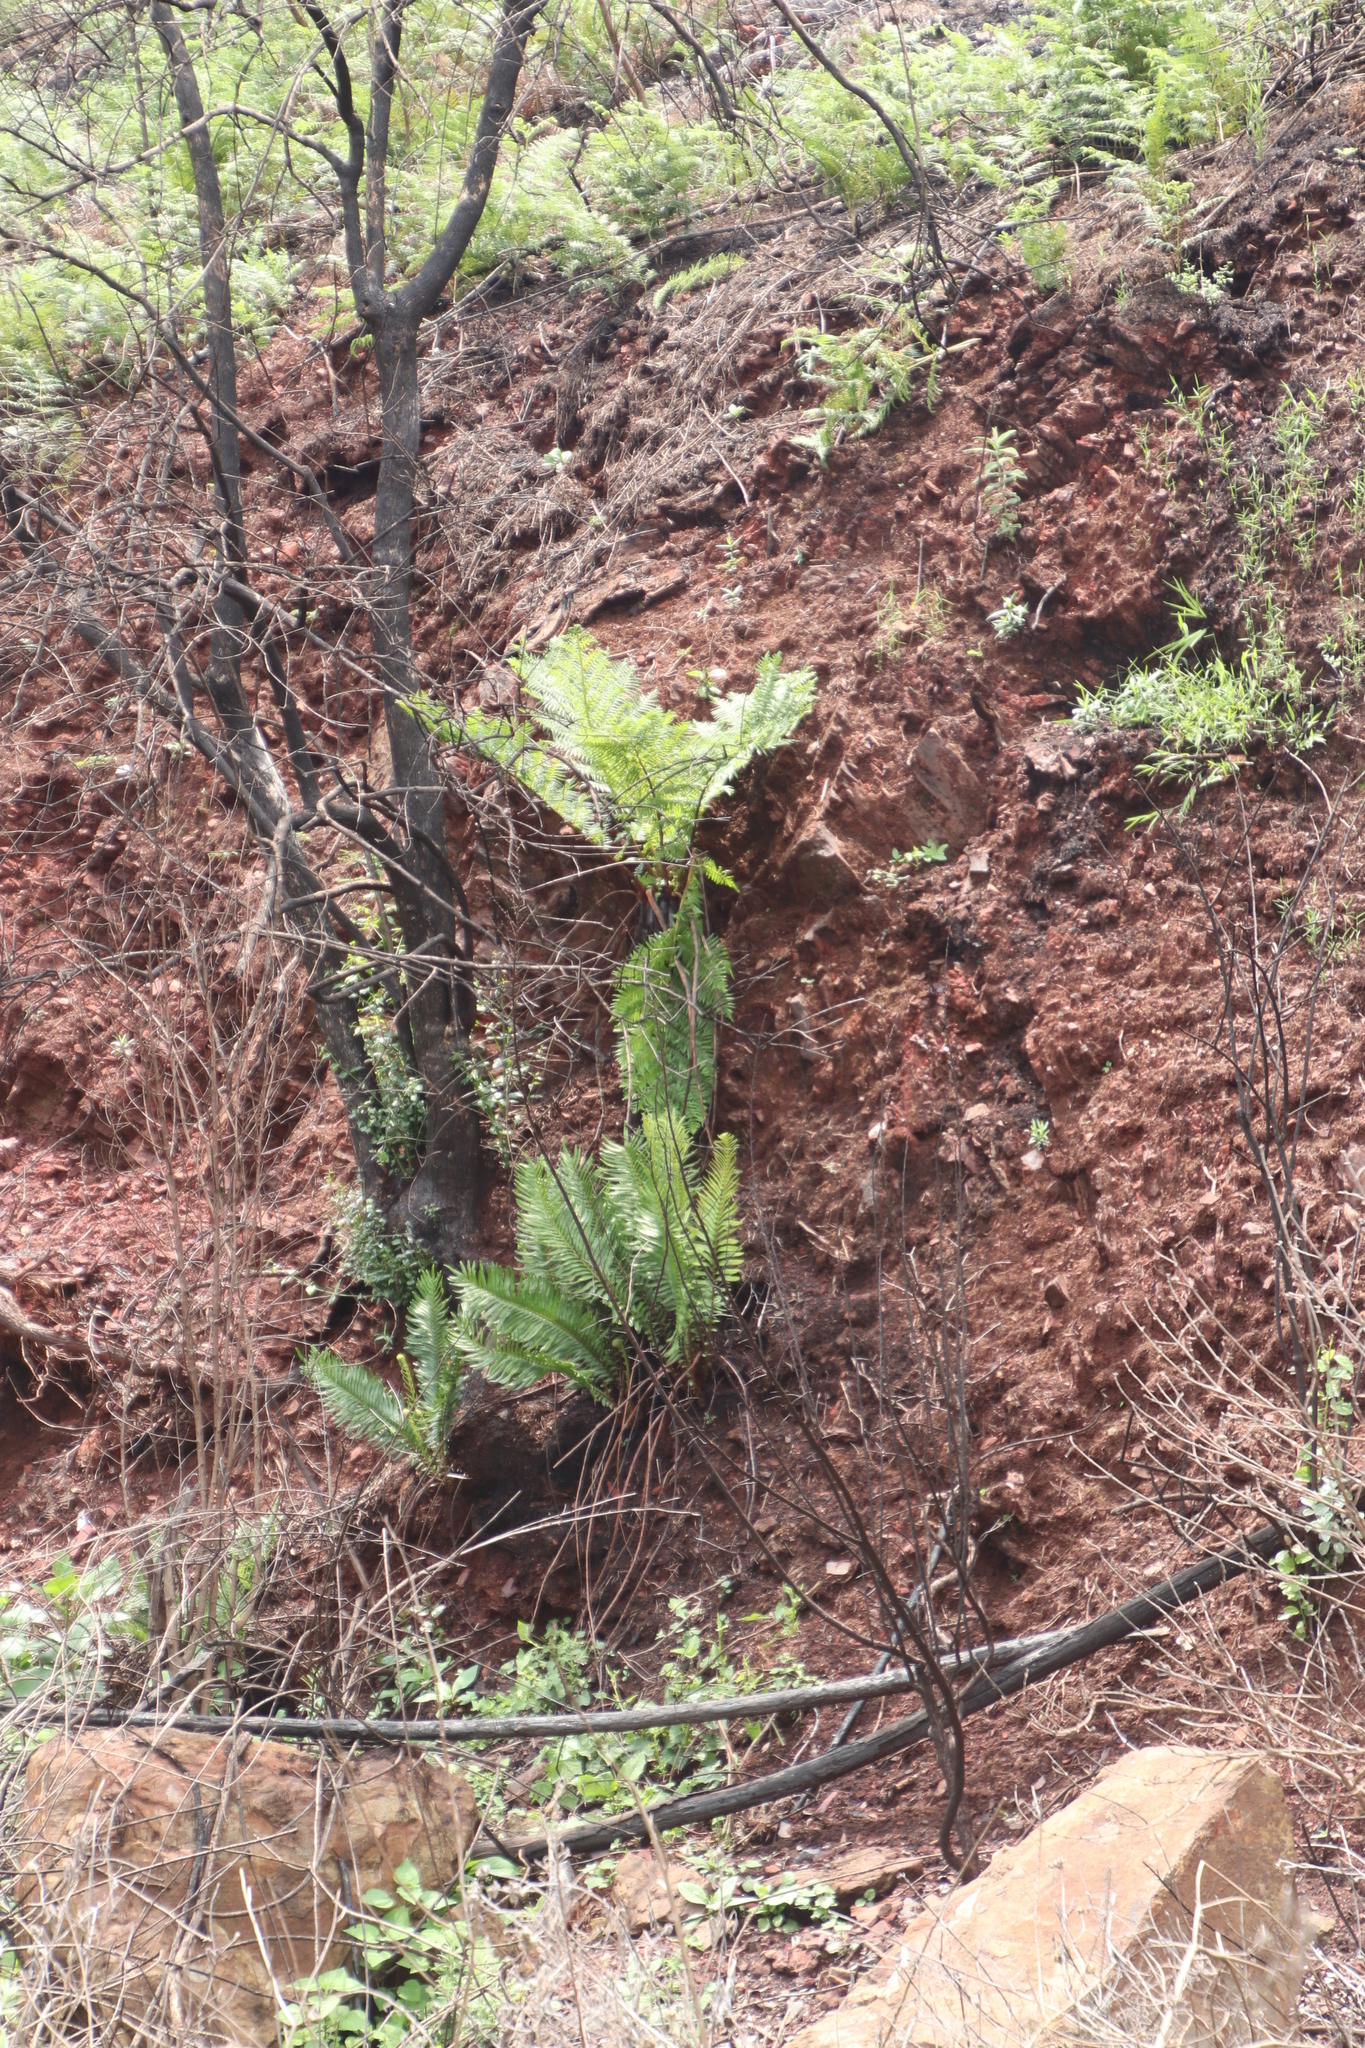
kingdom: Plantae
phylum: Tracheophyta
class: Polypodiopsida
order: Polypodiales
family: Dennstaedtiaceae
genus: Pteridium
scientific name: Pteridium aquilinum
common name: Bracken
